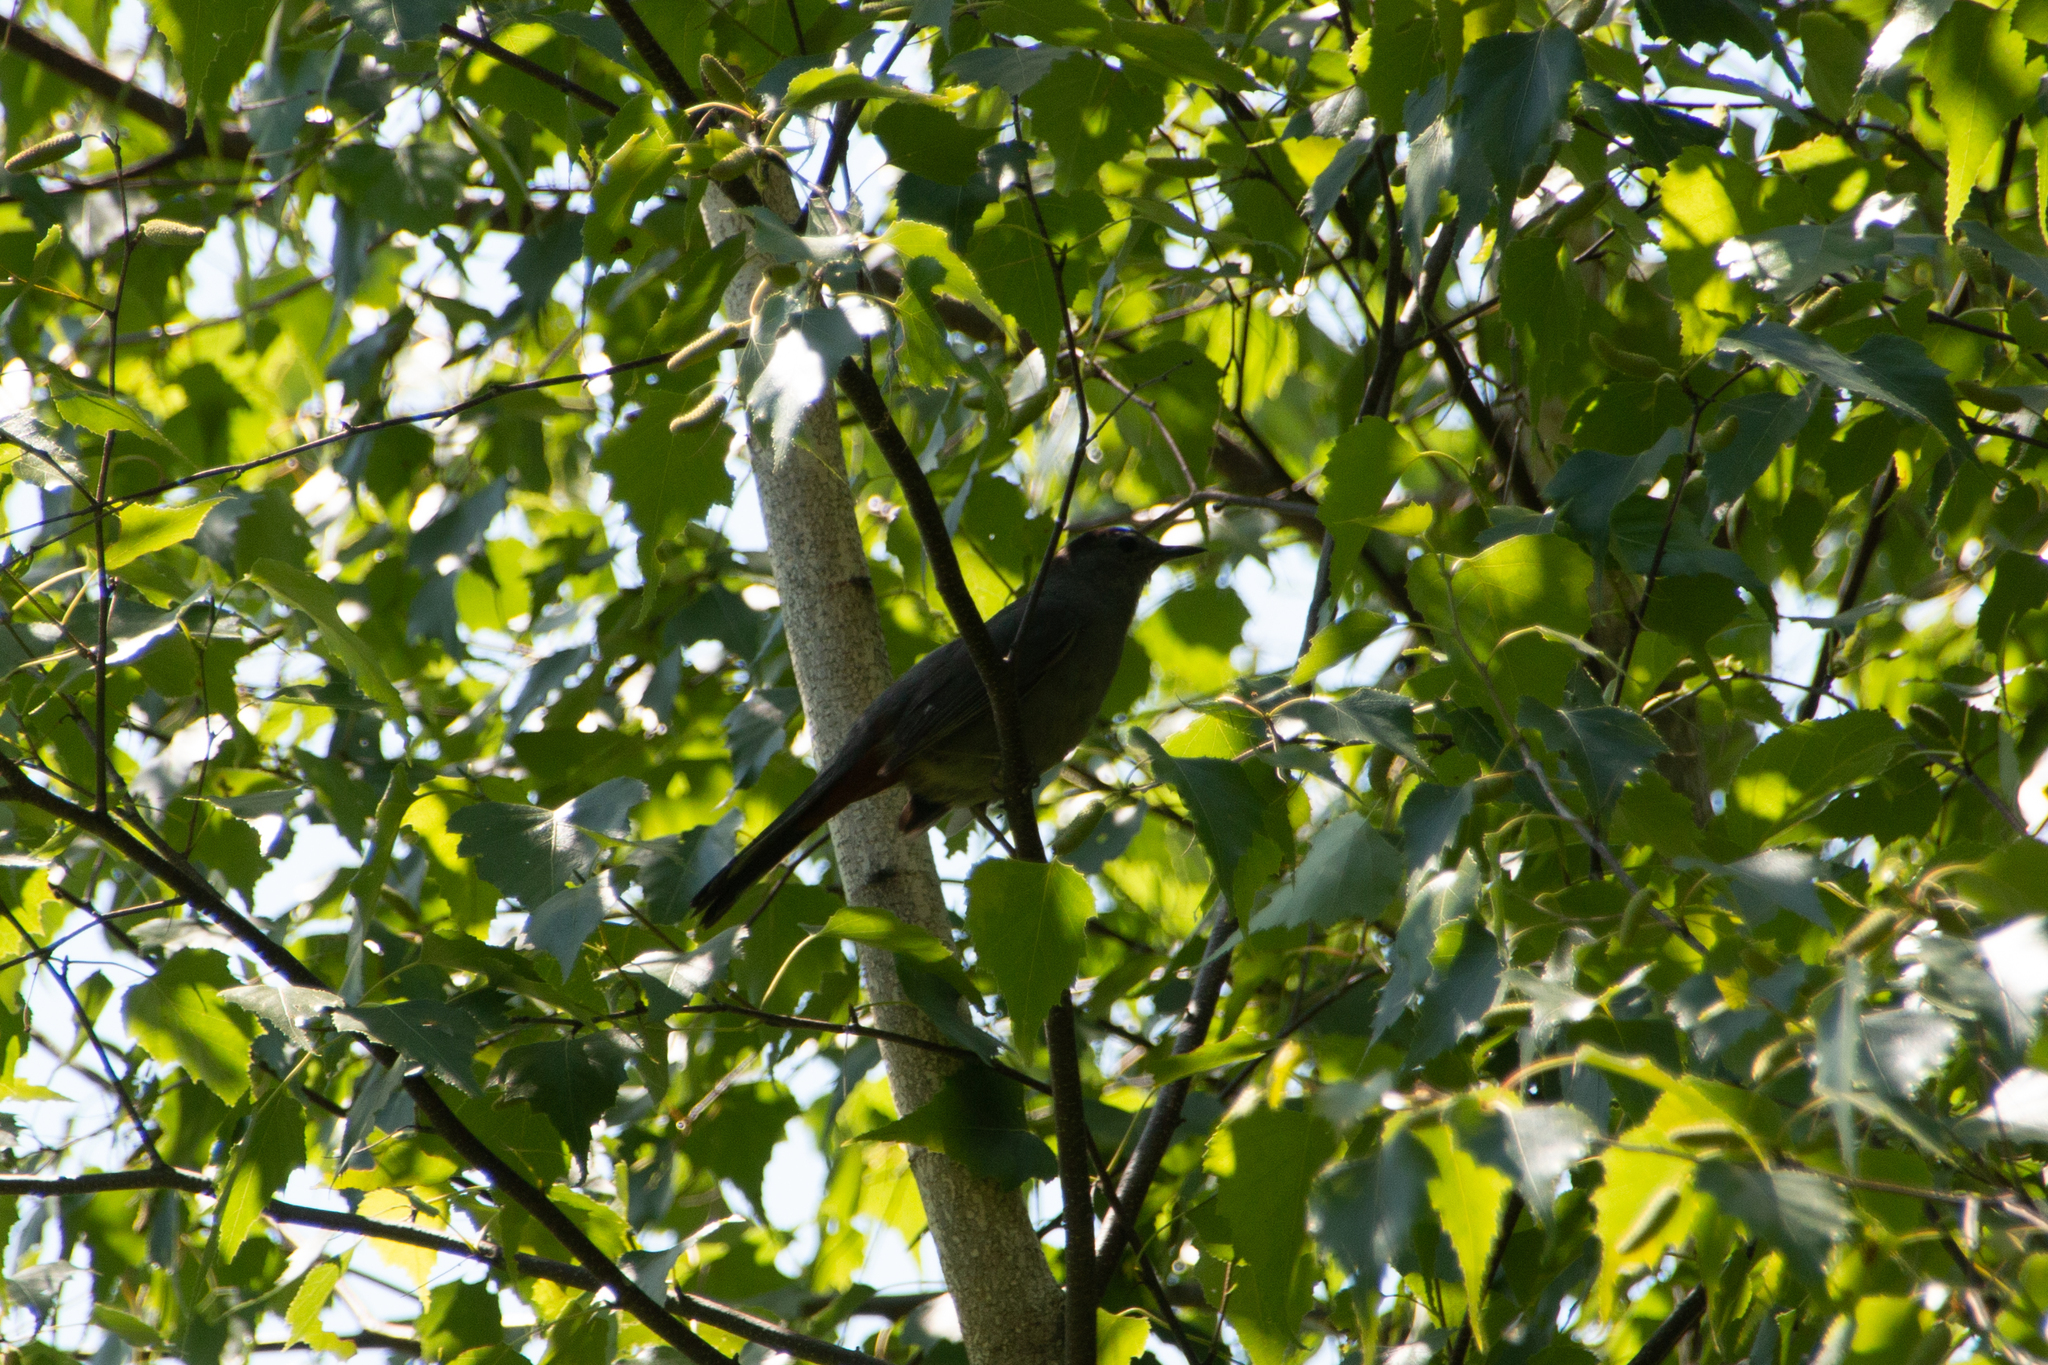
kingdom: Animalia
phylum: Chordata
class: Aves
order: Passeriformes
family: Mimidae
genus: Dumetella
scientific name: Dumetella carolinensis
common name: Gray catbird
